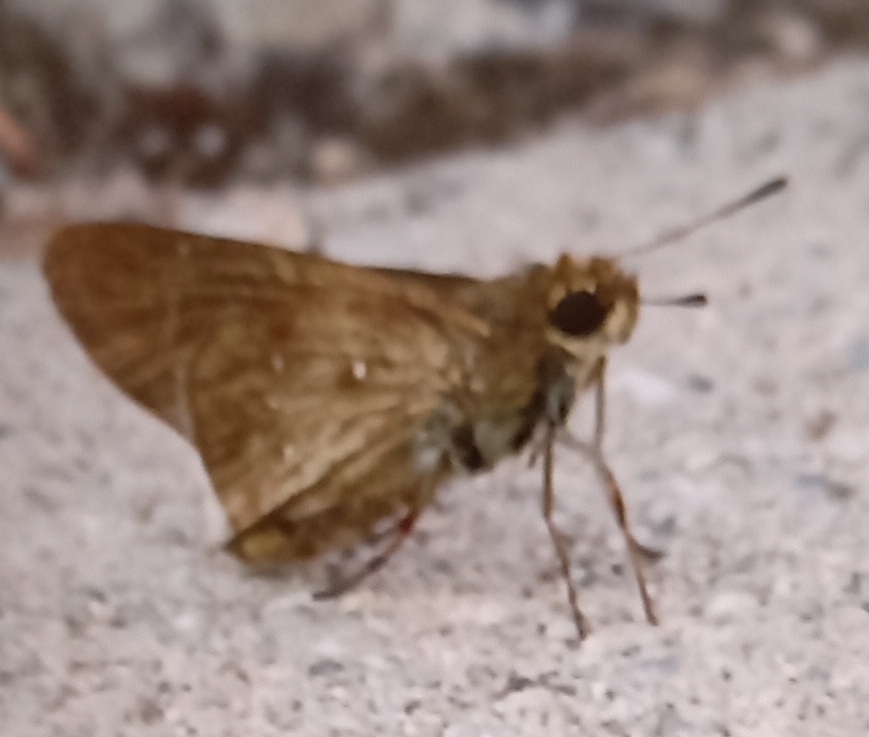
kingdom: Animalia
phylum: Arthropoda
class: Insecta
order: Lepidoptera
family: Hesperiidae
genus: Pelopidas
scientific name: Pelopidas thrax
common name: Millet skipper
